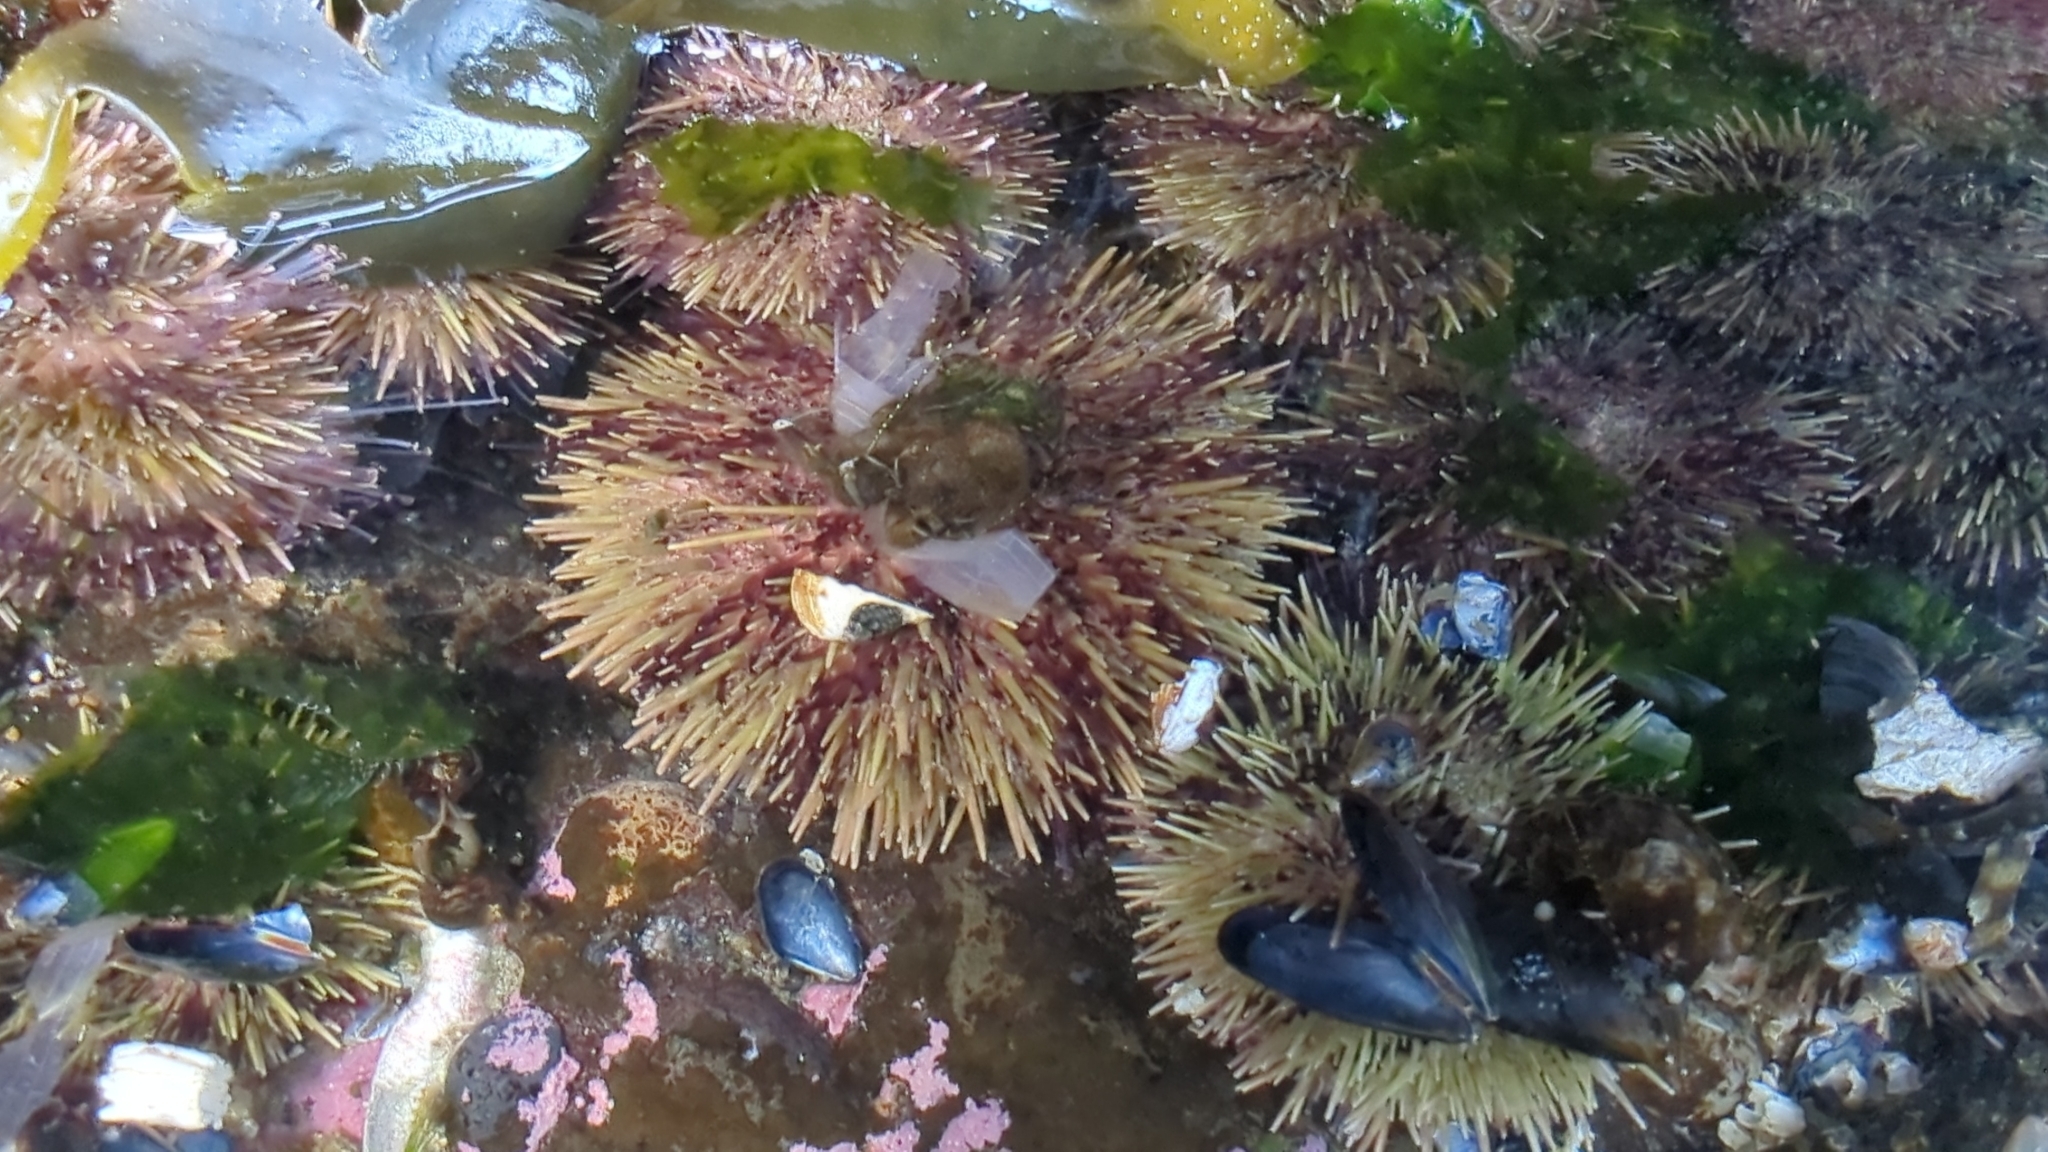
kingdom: Animalia
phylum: Echinodermata
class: Echinoidea
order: Camarodonta
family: Strongylocentrotidae
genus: Strongylocentrotus
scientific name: Strongylocentrotus droebachiensis
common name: Northern sea urchin
